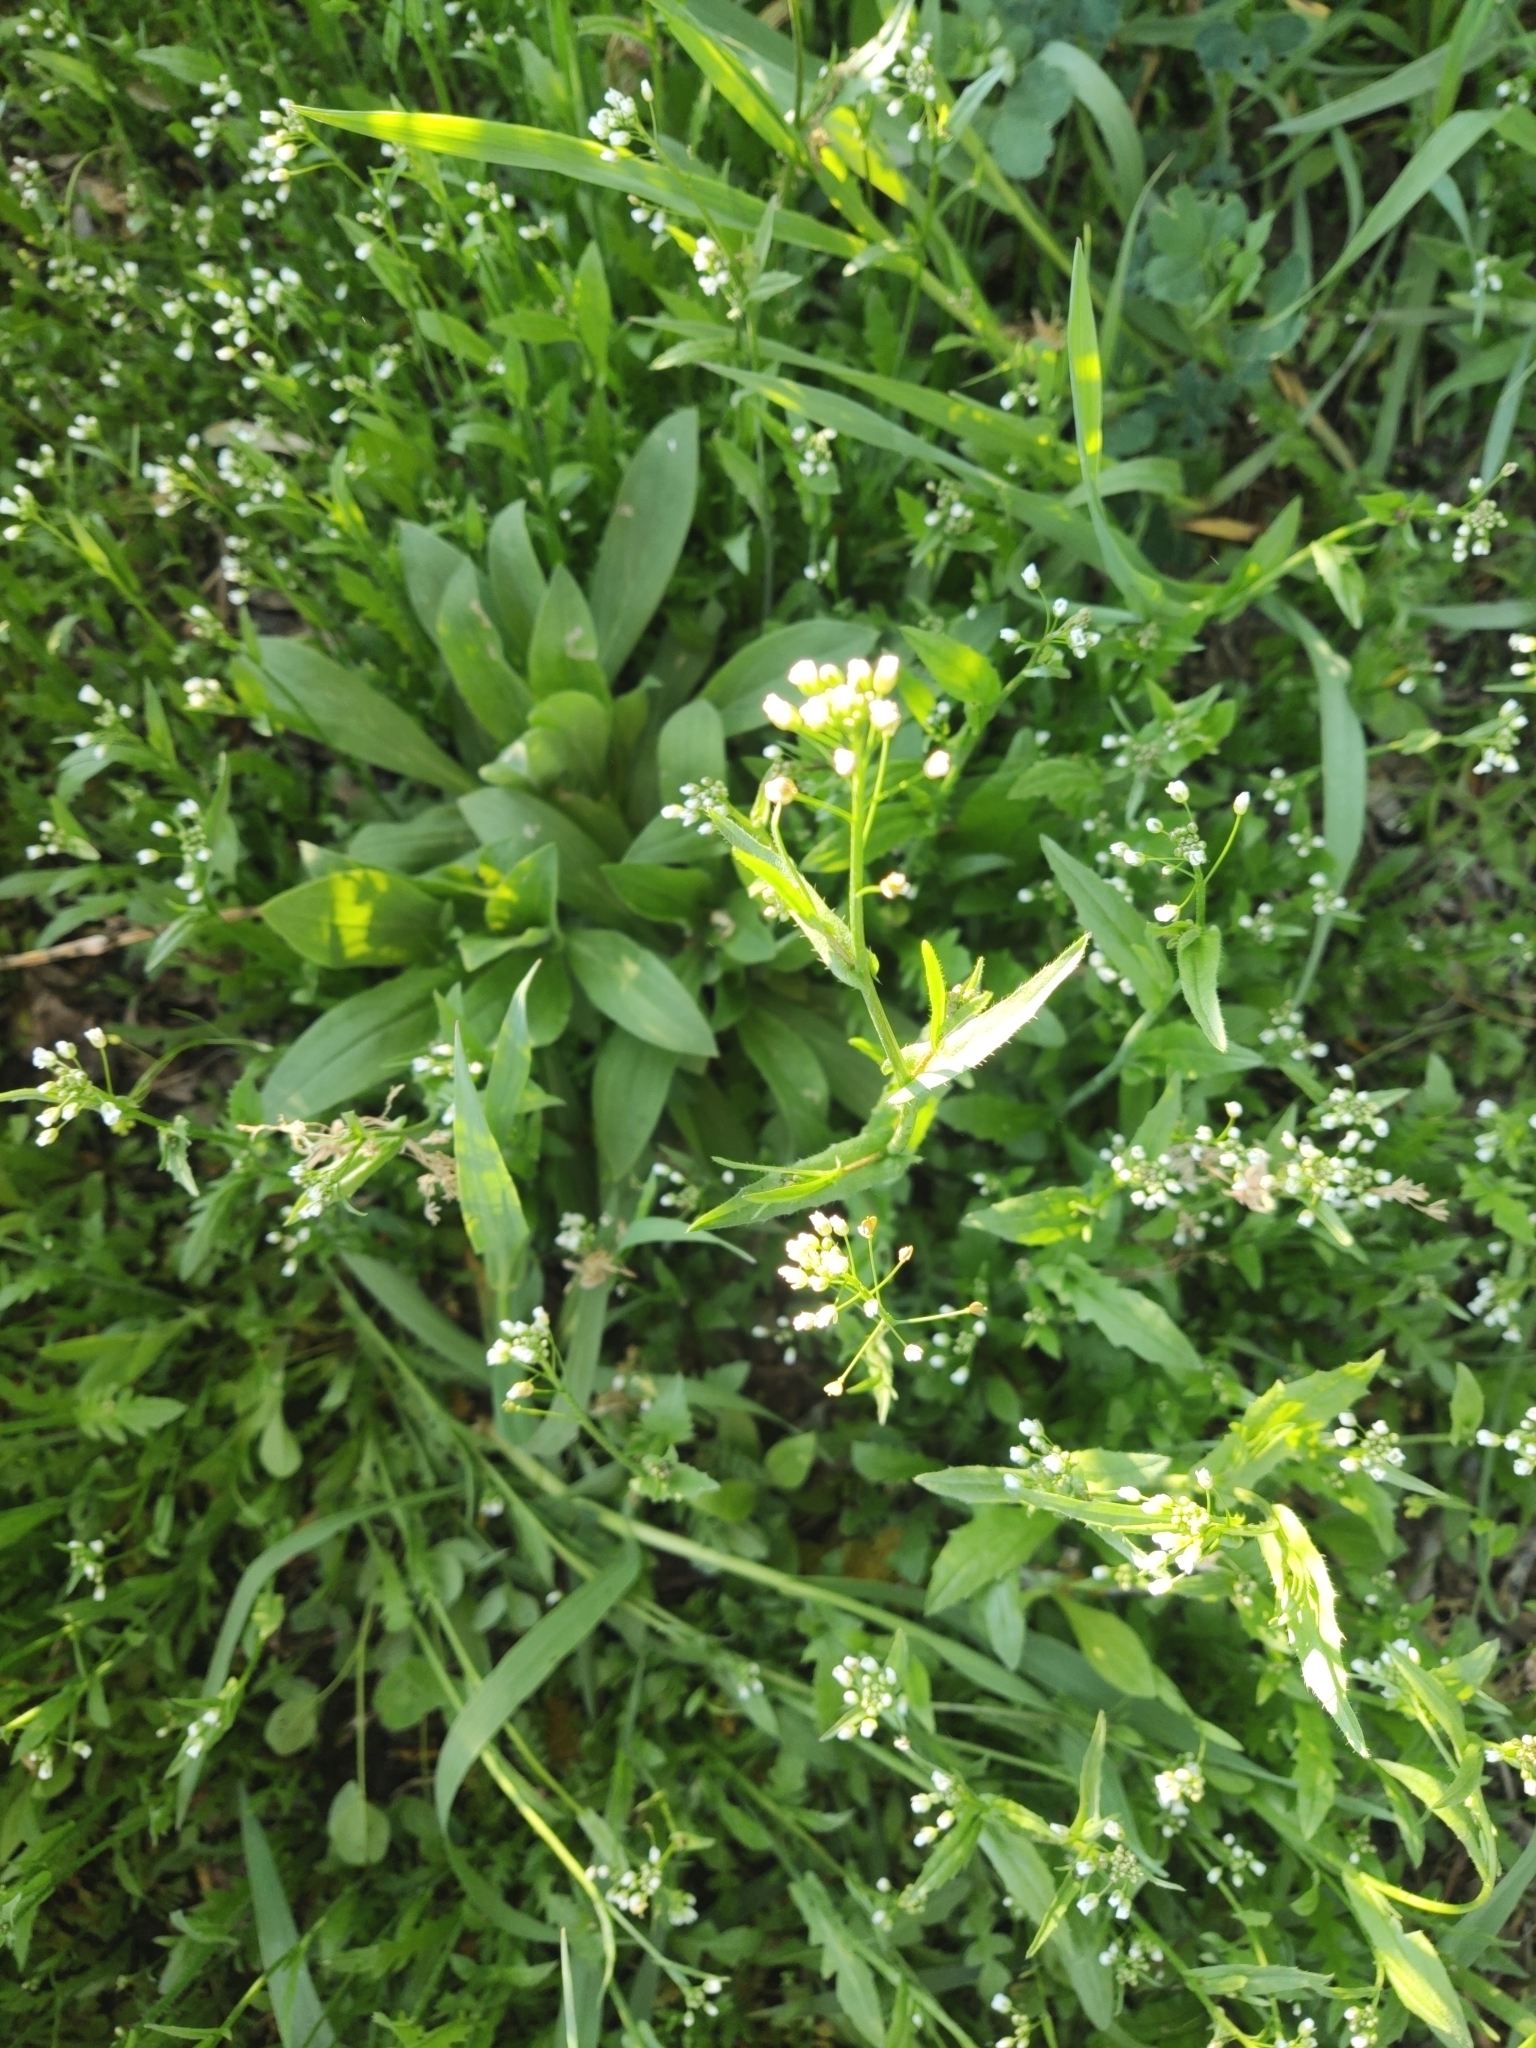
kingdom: Plantae
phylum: Tracheophyta
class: Magnoliopsida
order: Brassicales
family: Brassicaceae
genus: Capsella
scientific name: Capsella bursa-pastoris
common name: Shepherd's purse
